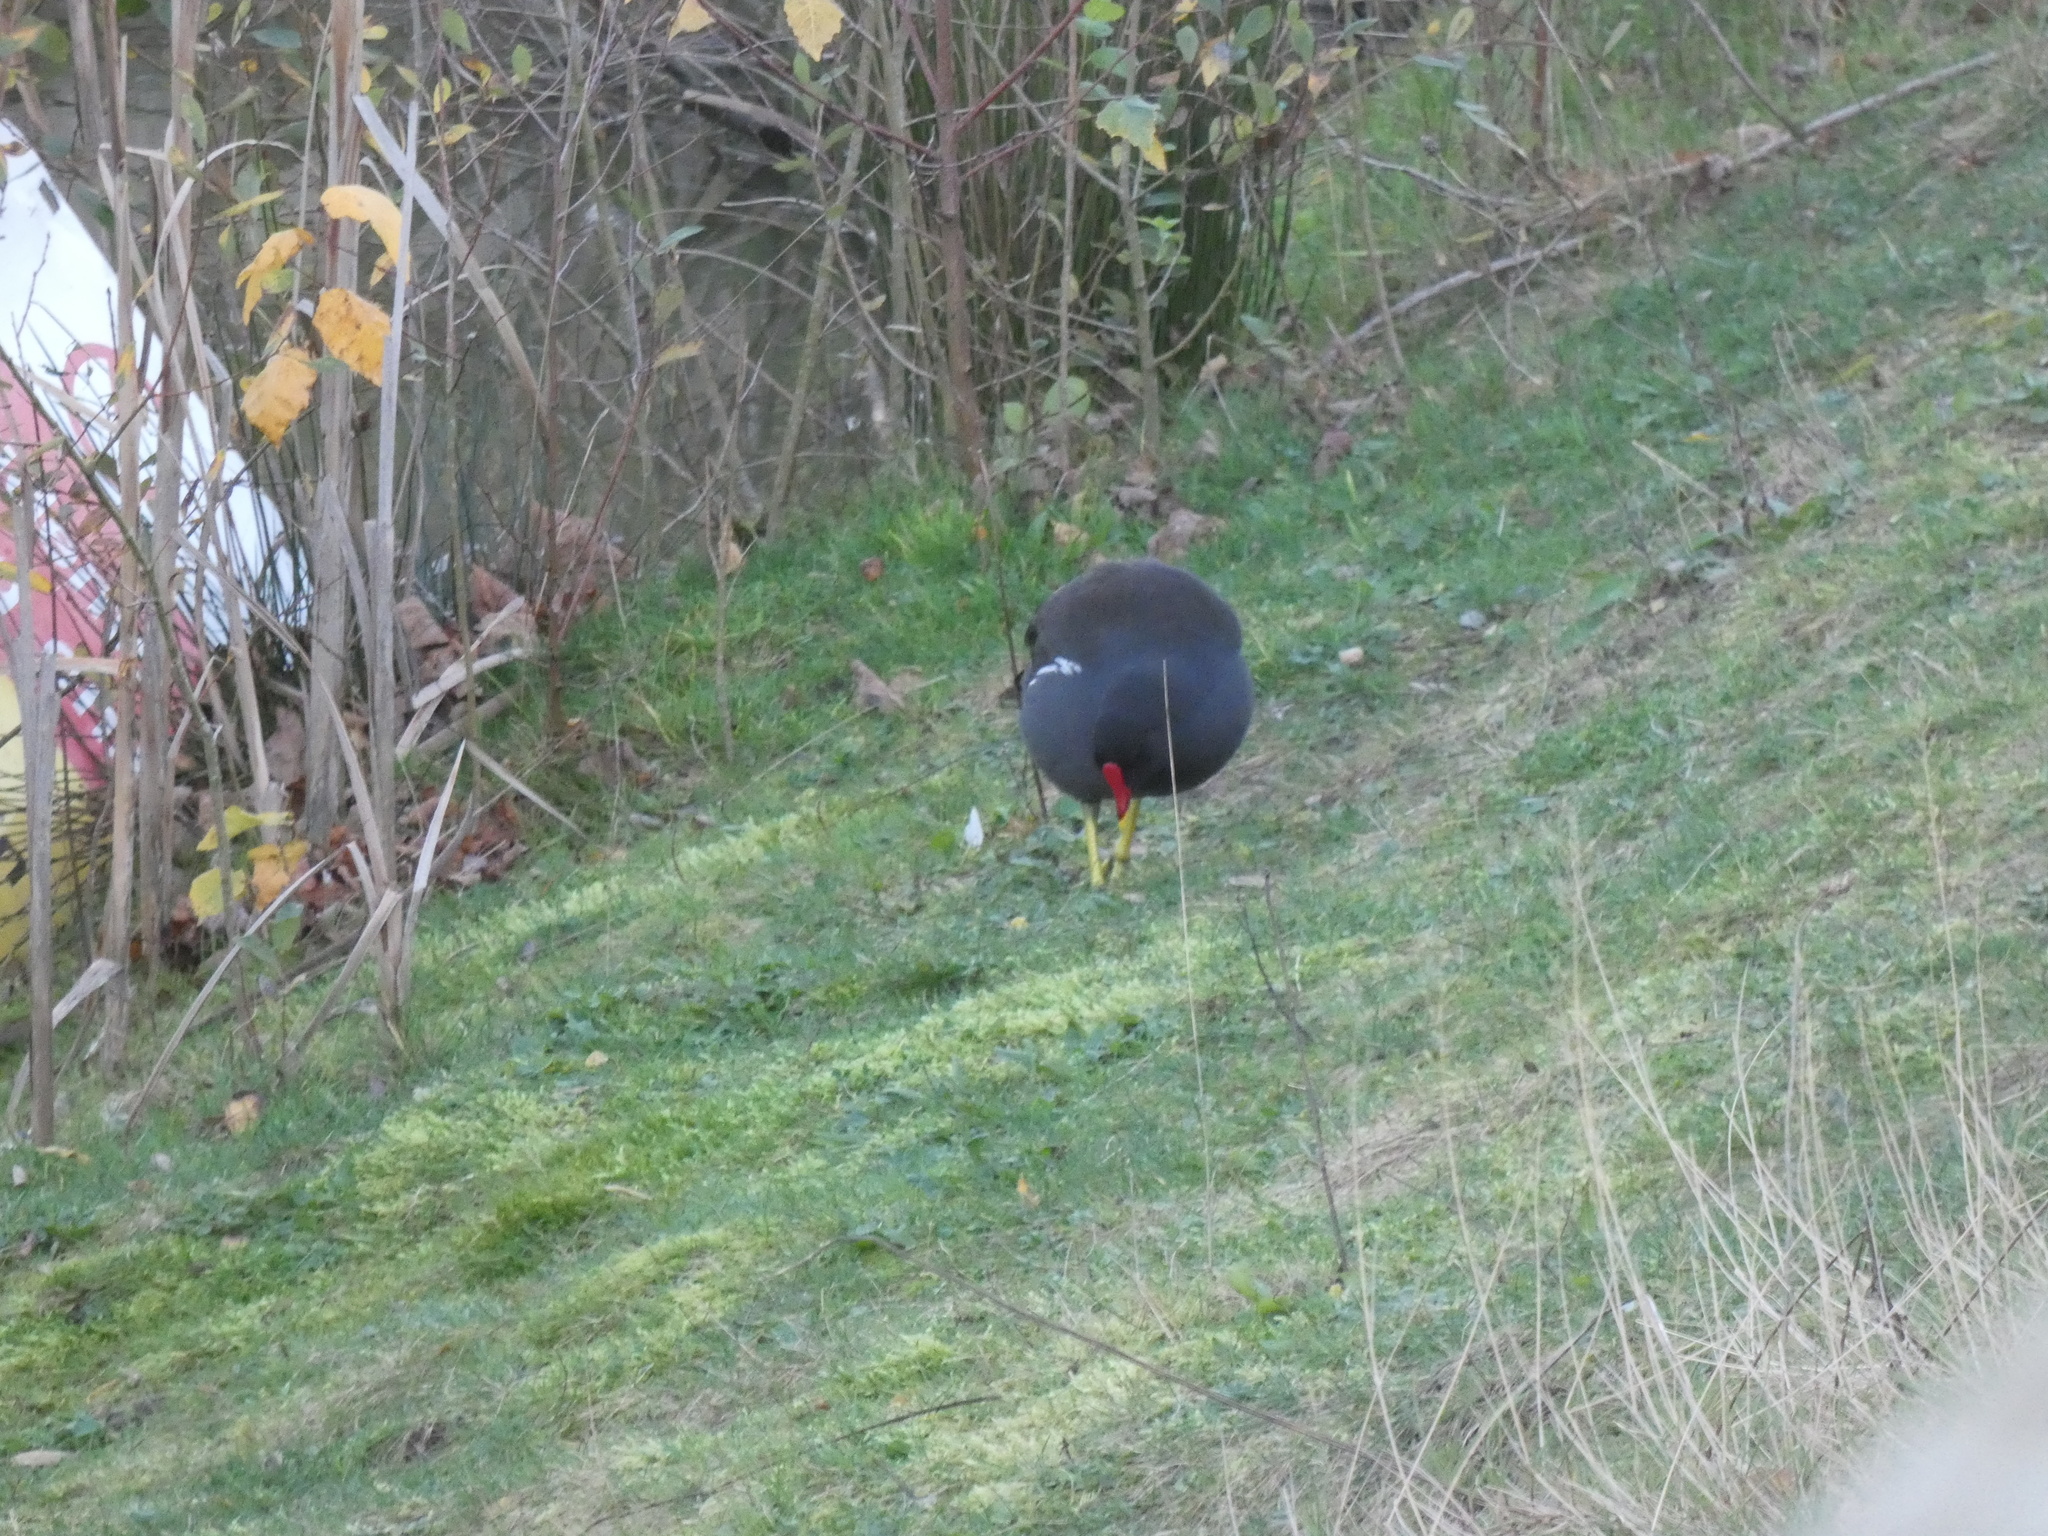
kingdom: Animalia
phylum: Chordata
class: Aves
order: Gruiformes
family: Rallidae
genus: Gallinula
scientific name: Gallinula chloropus
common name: Common moorhen
